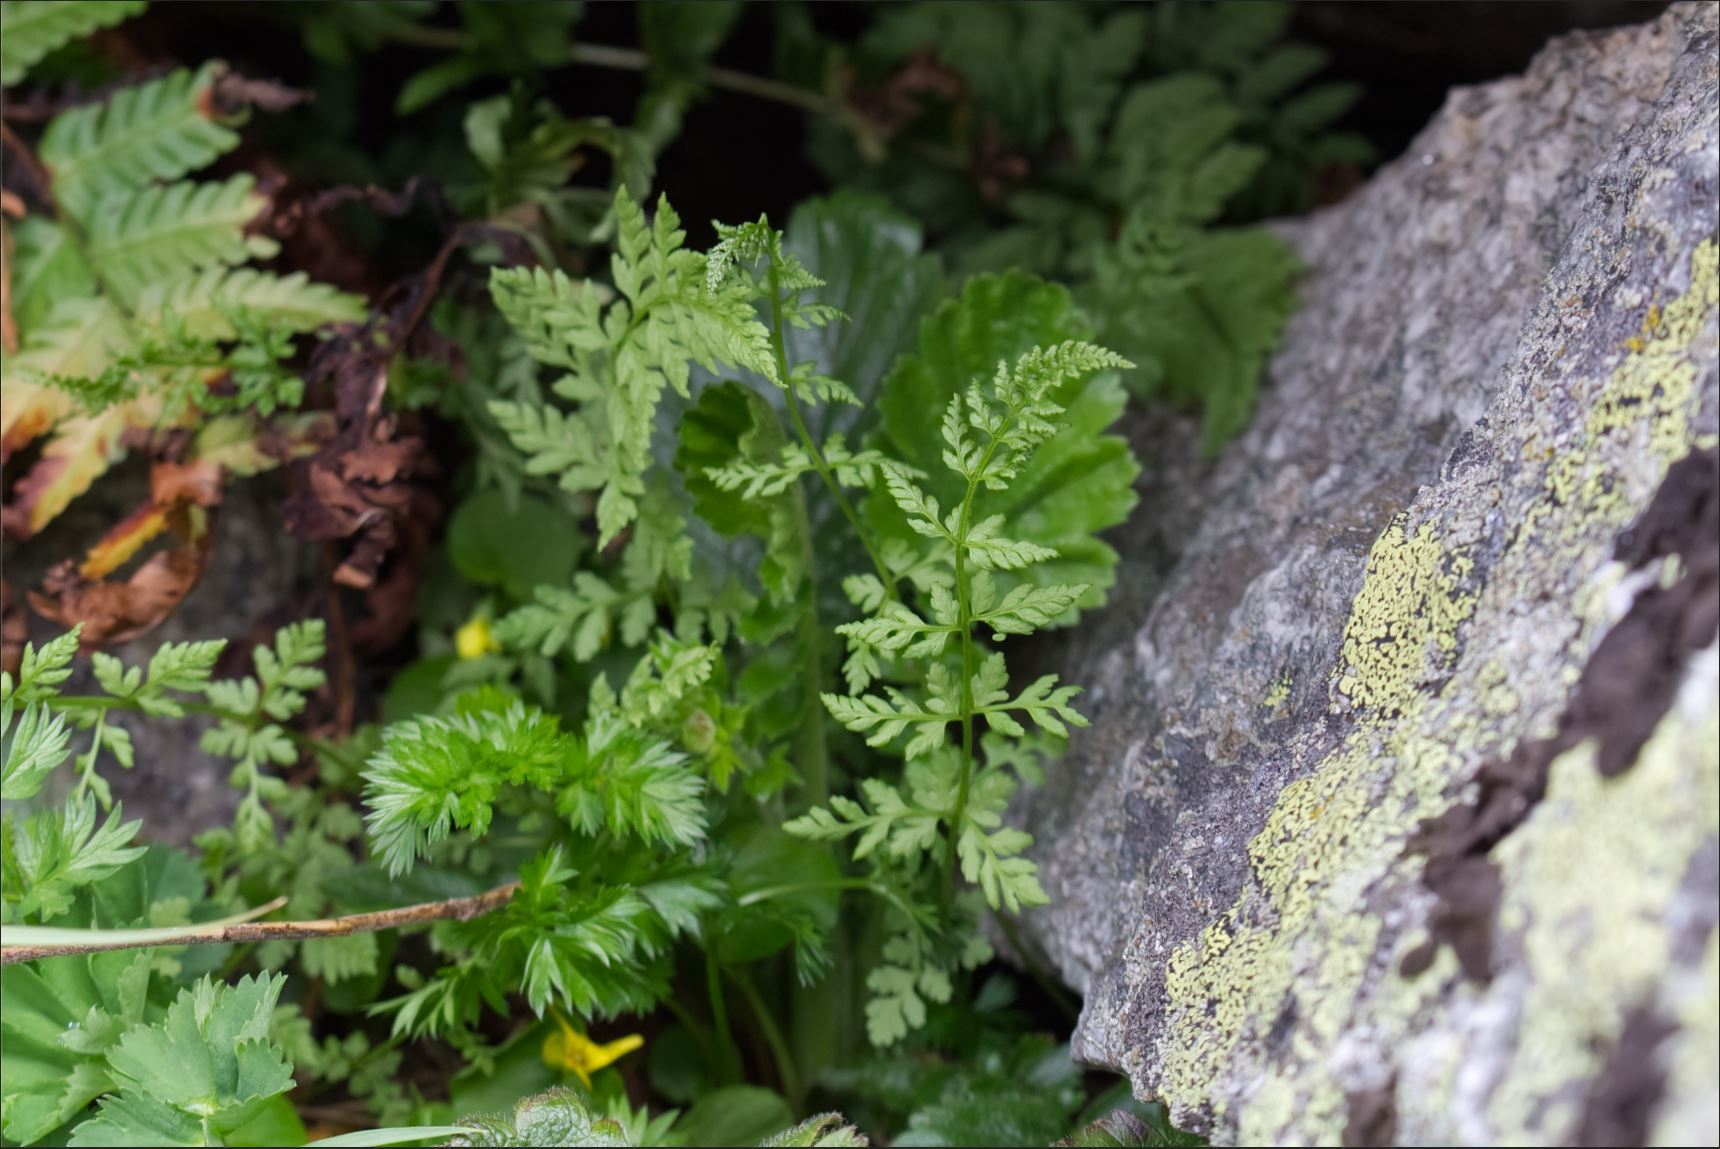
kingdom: Plantae
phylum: Tracheophyta
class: Polypodiopsida
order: Polypodiales
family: Cystopteridaceae
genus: Cystopteris
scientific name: Cystopteris fragilis
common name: Brittle bladder fern
